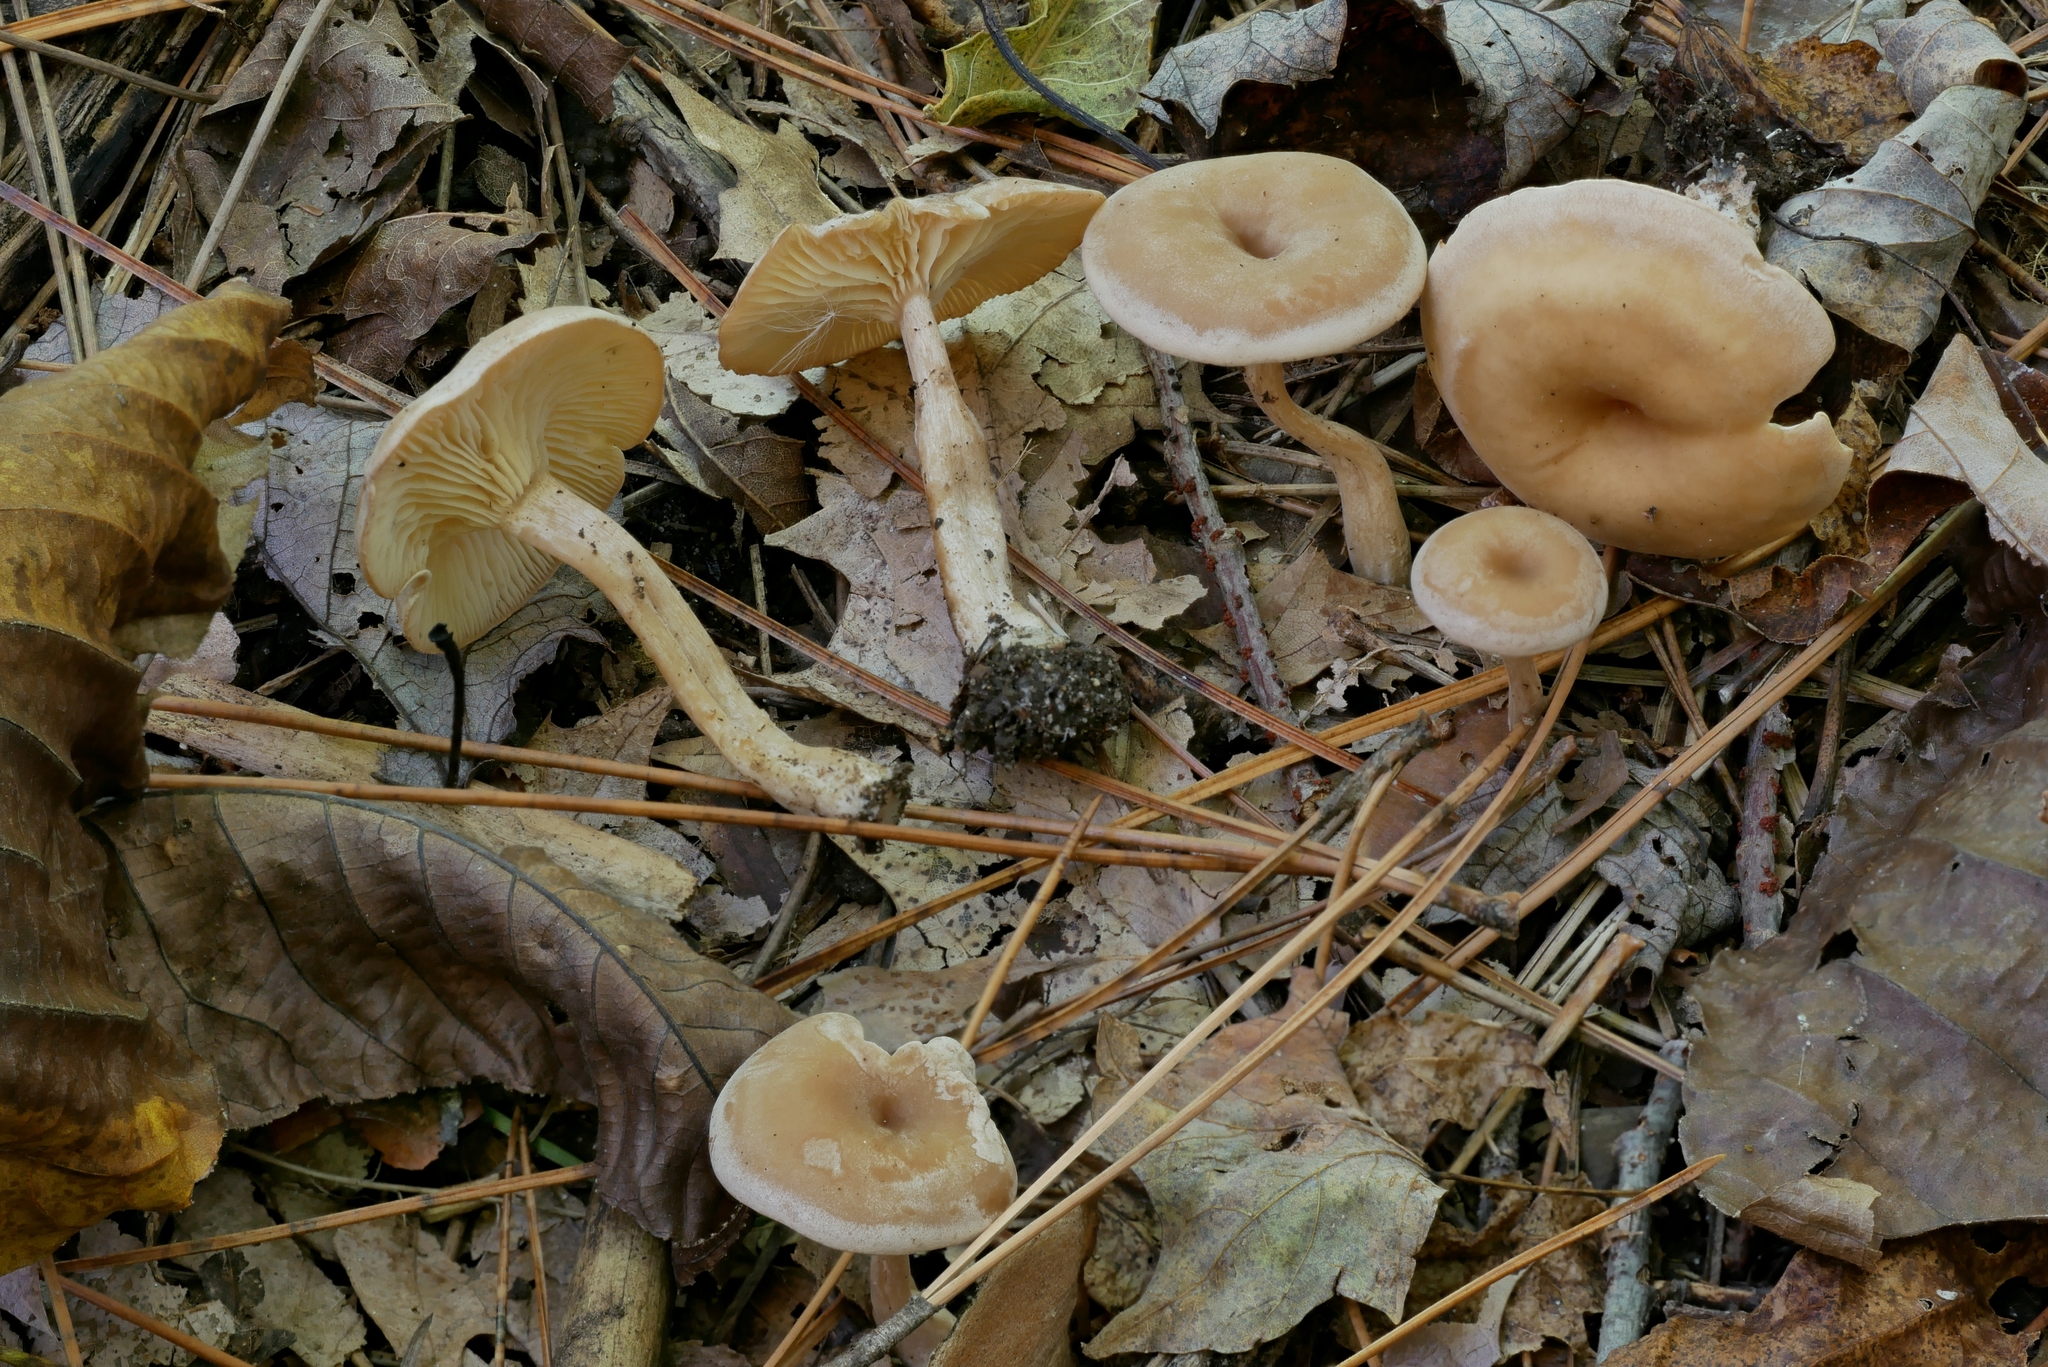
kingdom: Fungi
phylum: Basidiomycota
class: Agaricomycetes
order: Agaricales
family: Tricholomataceae
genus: Pseudoomphalina
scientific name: Pseudoomphalina compressipes
